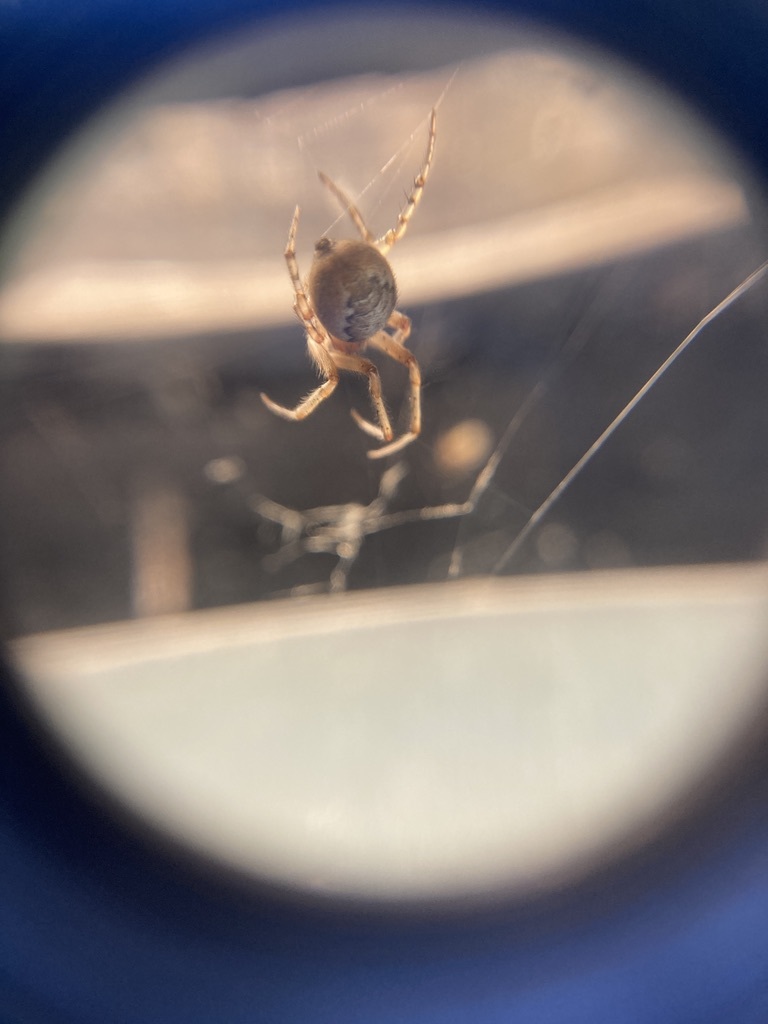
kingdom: Animalia
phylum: Arthropoda
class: Arachnida
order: Araneae
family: Araneidae
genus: Zygiella
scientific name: Zygiella x-notata
